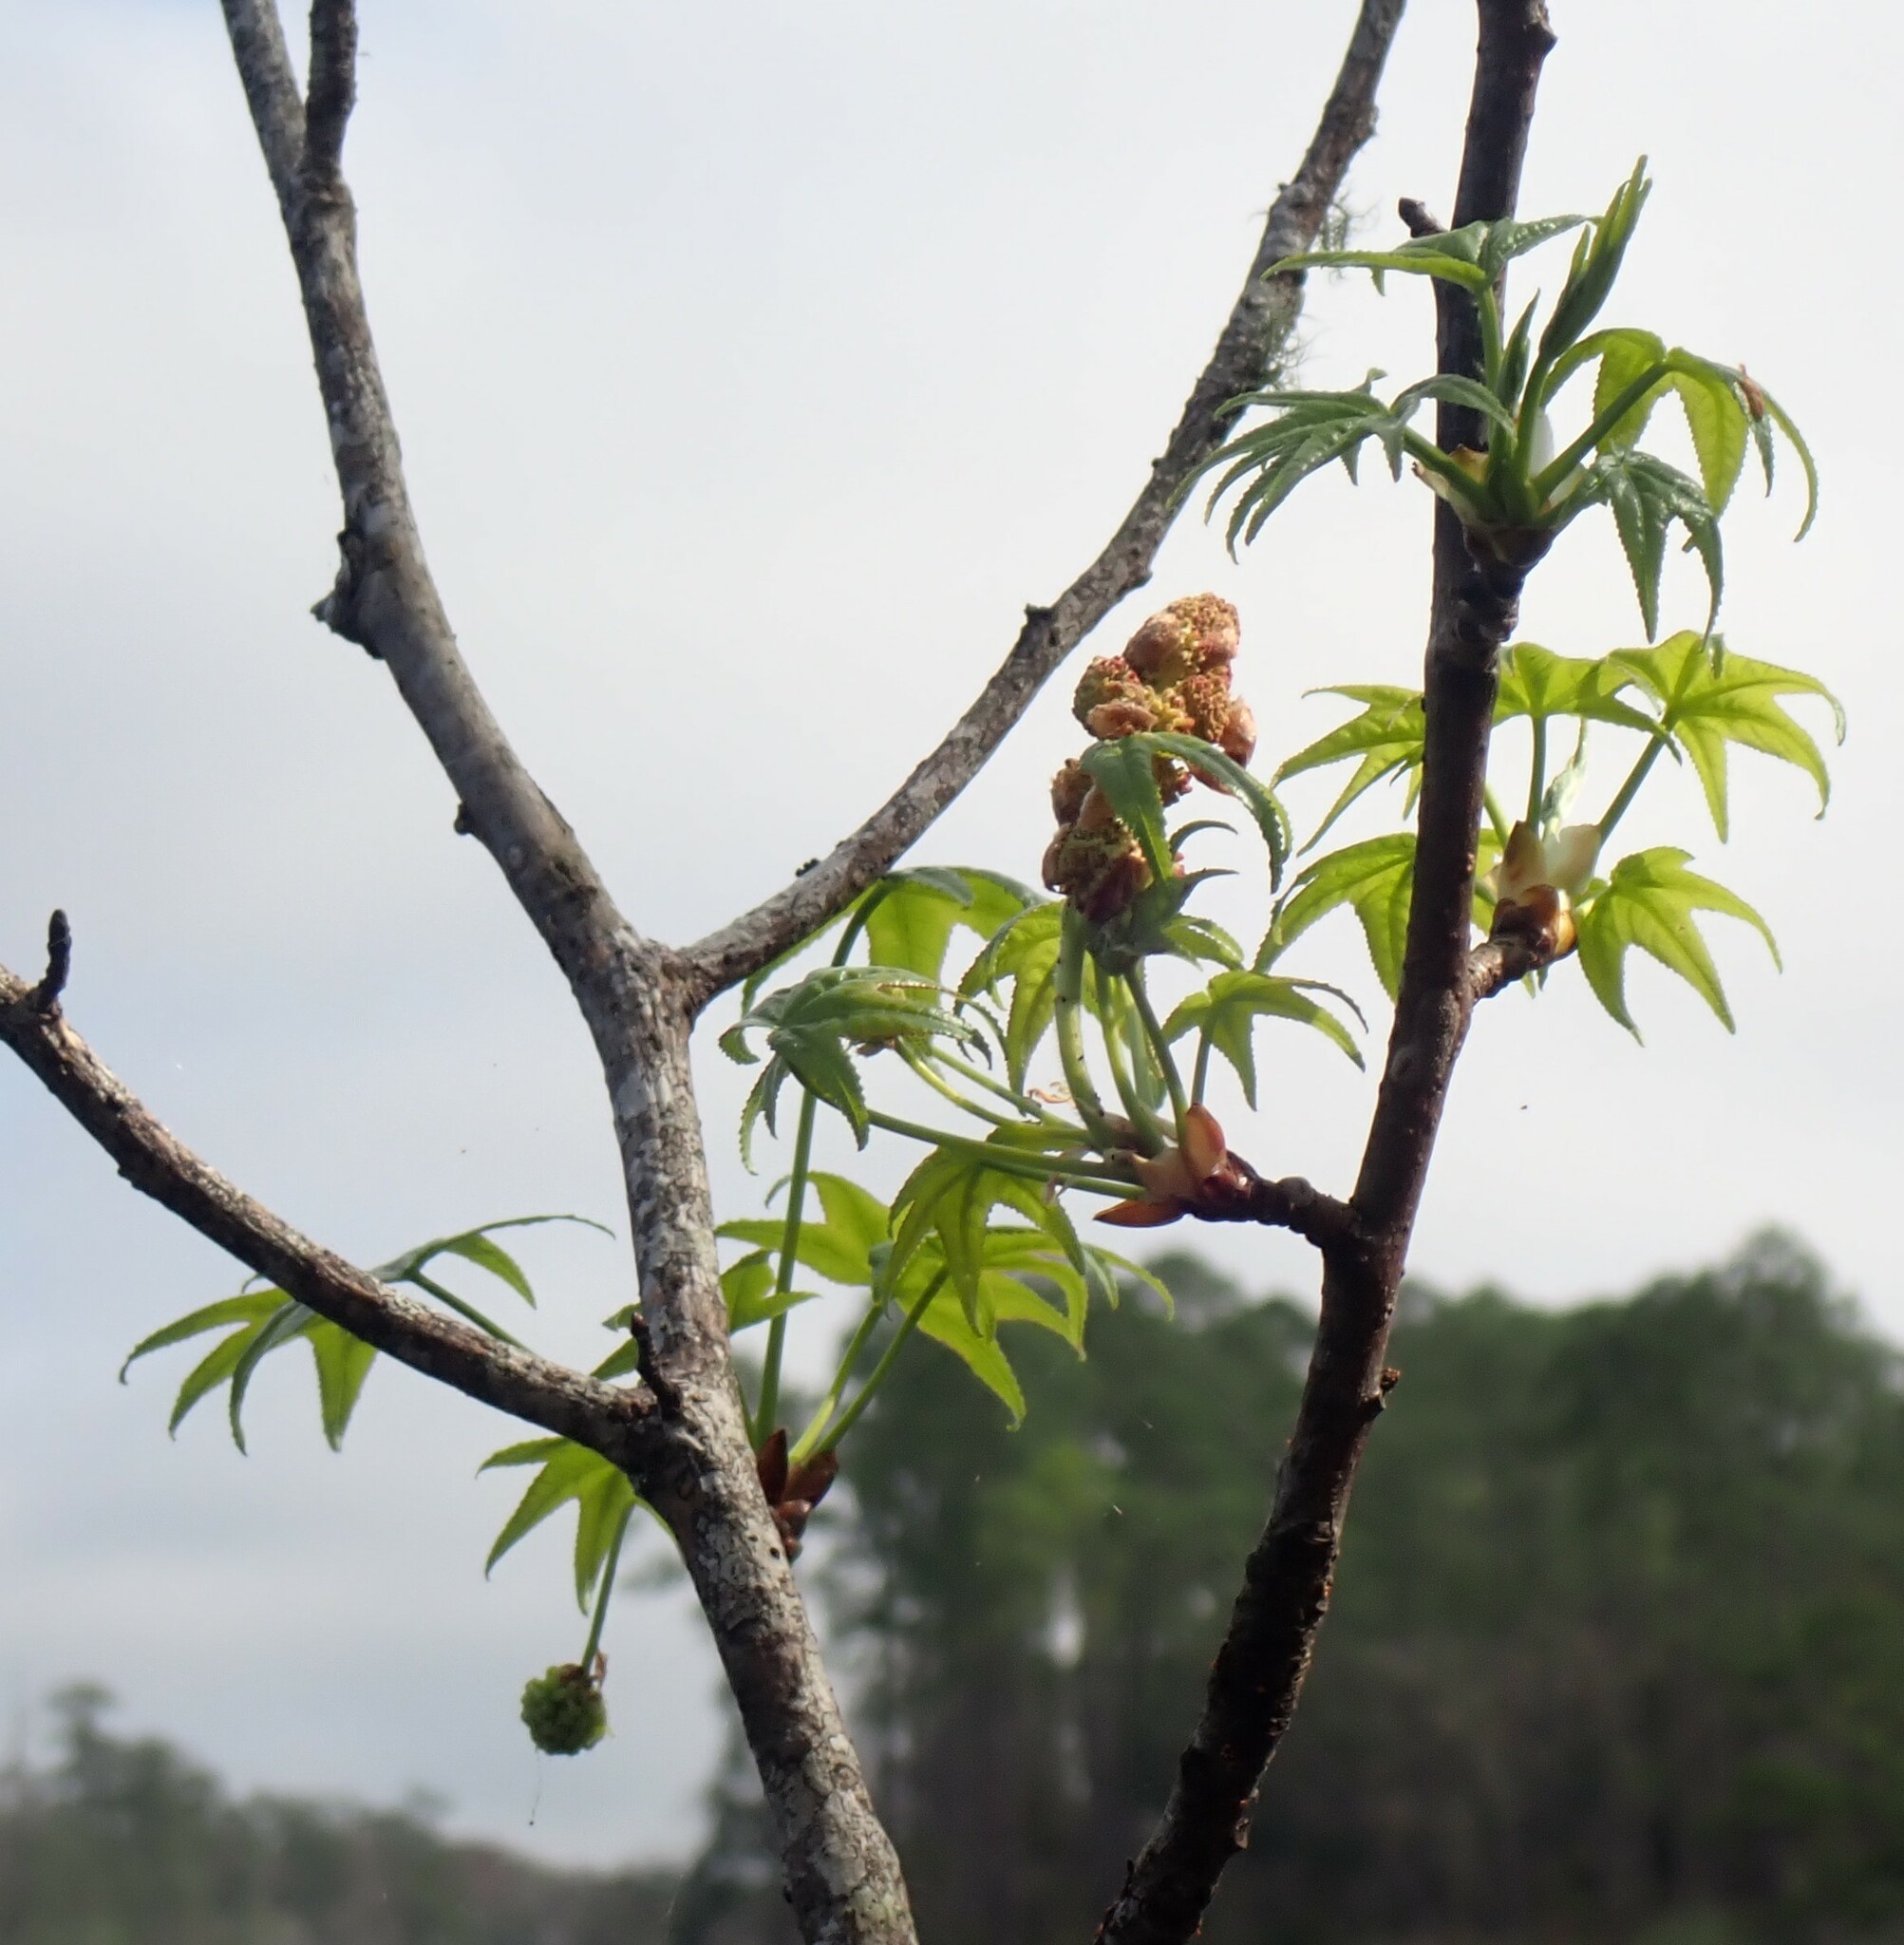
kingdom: Plantae
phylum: Tracheophyta
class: Magnoliopsida
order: Saxifragales
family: Altingiaceae
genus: Liquidambar
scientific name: Liquidambar styraciflua
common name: Sweet gum
